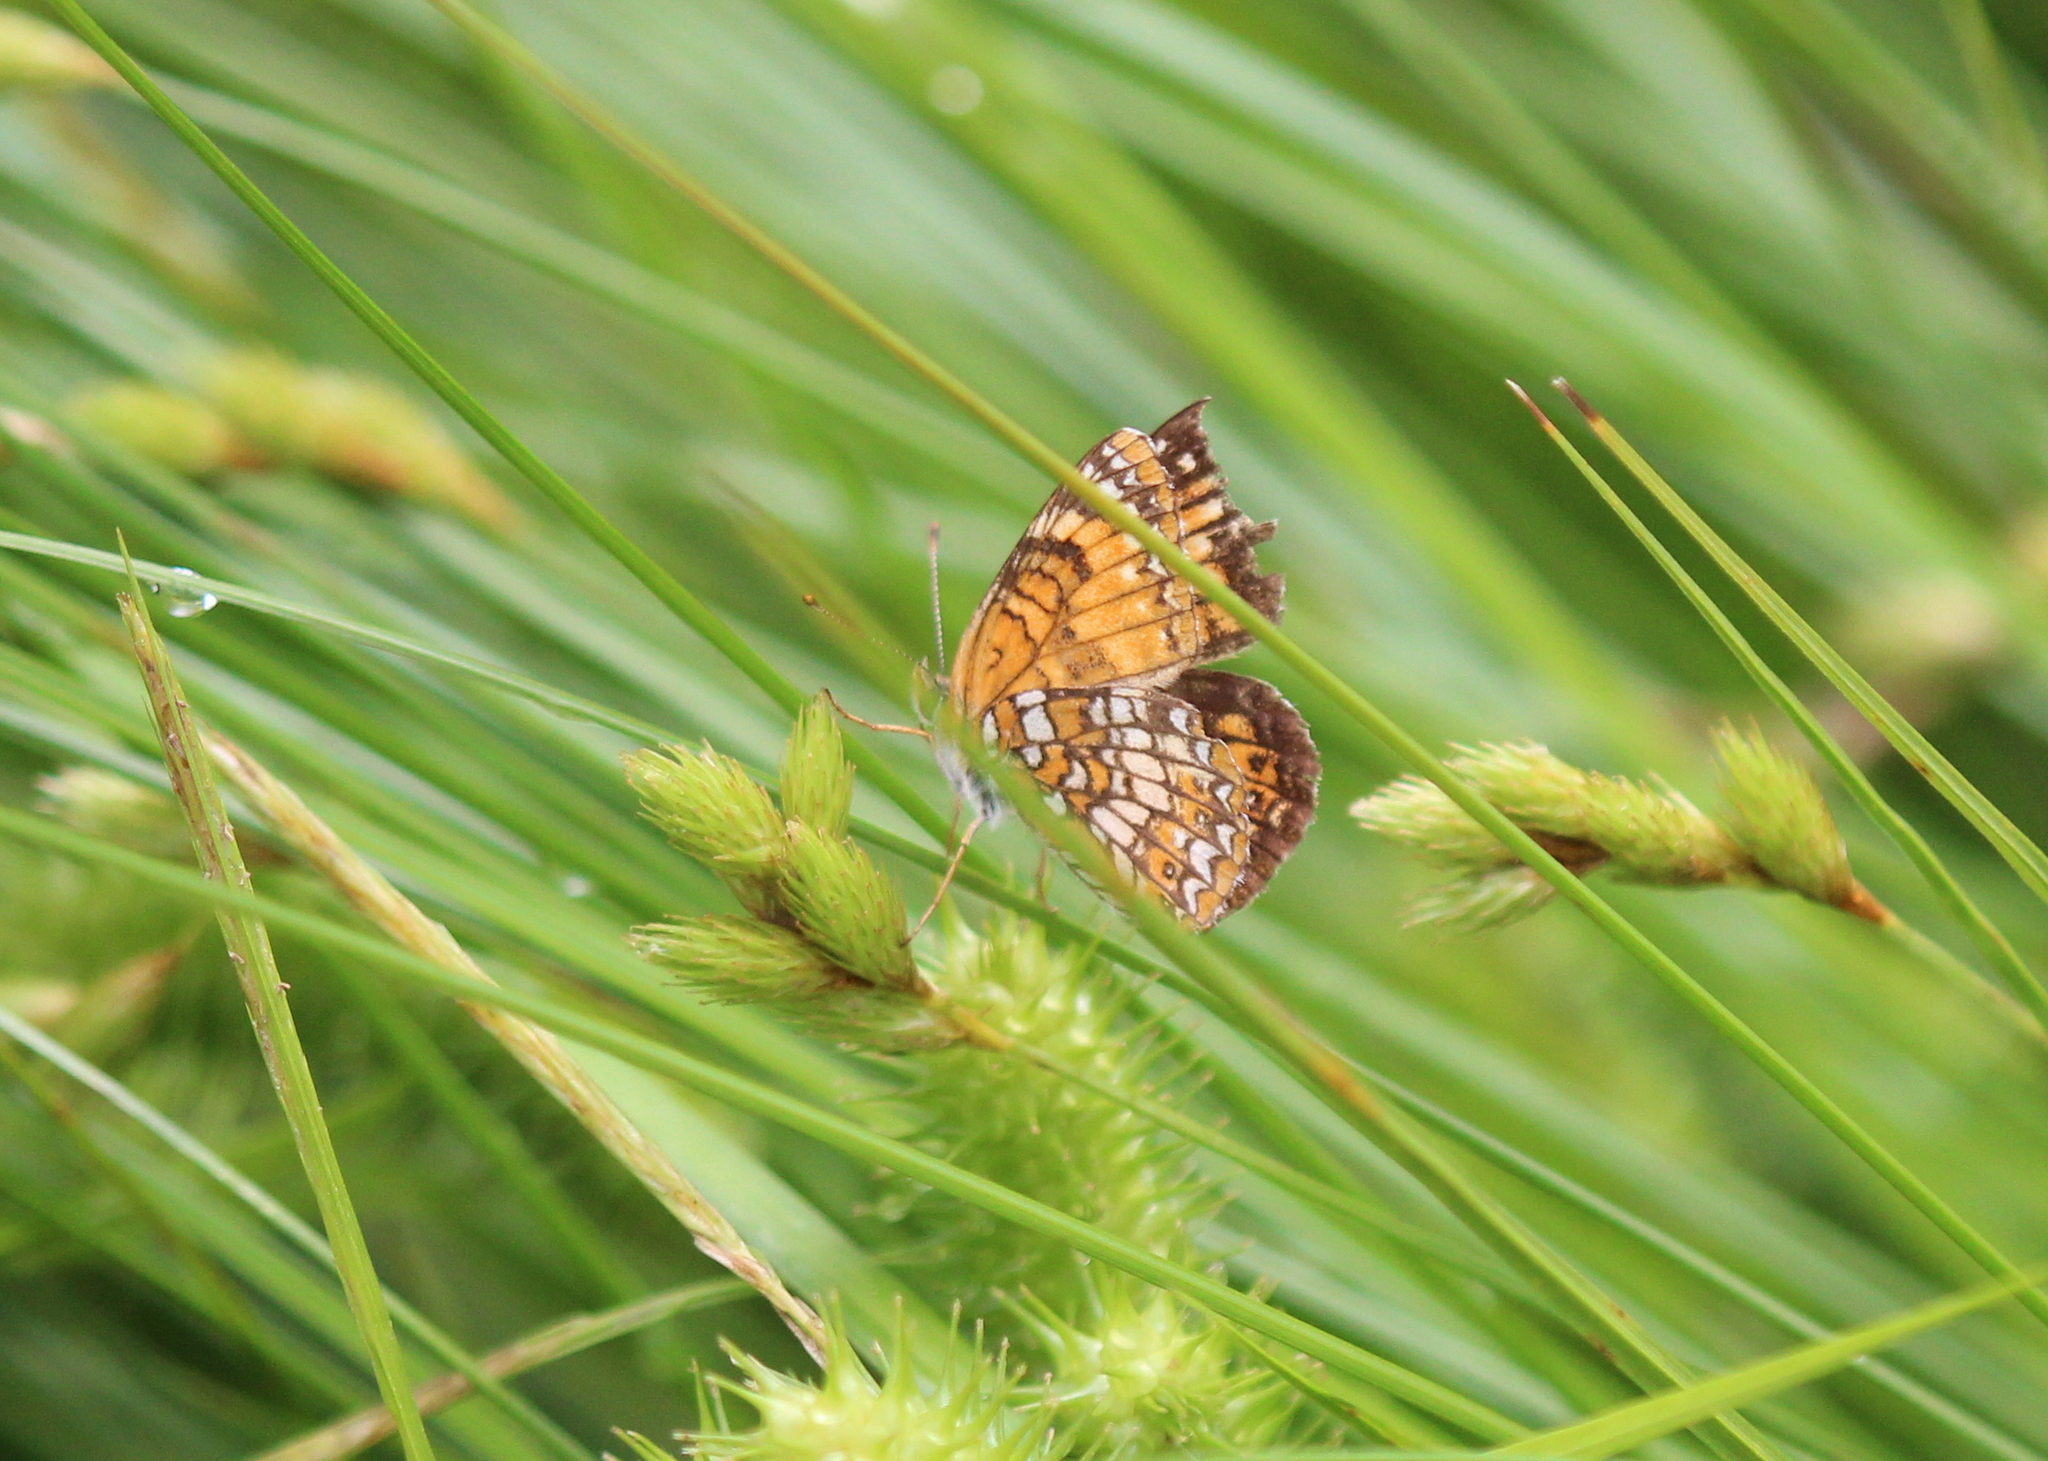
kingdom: Animalia
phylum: Arthropoda
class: Insecta
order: Lepidoptera
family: Nymphalidae
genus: Chlosyne
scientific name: Chlosyne harrisii
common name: Harris's checkerspot
